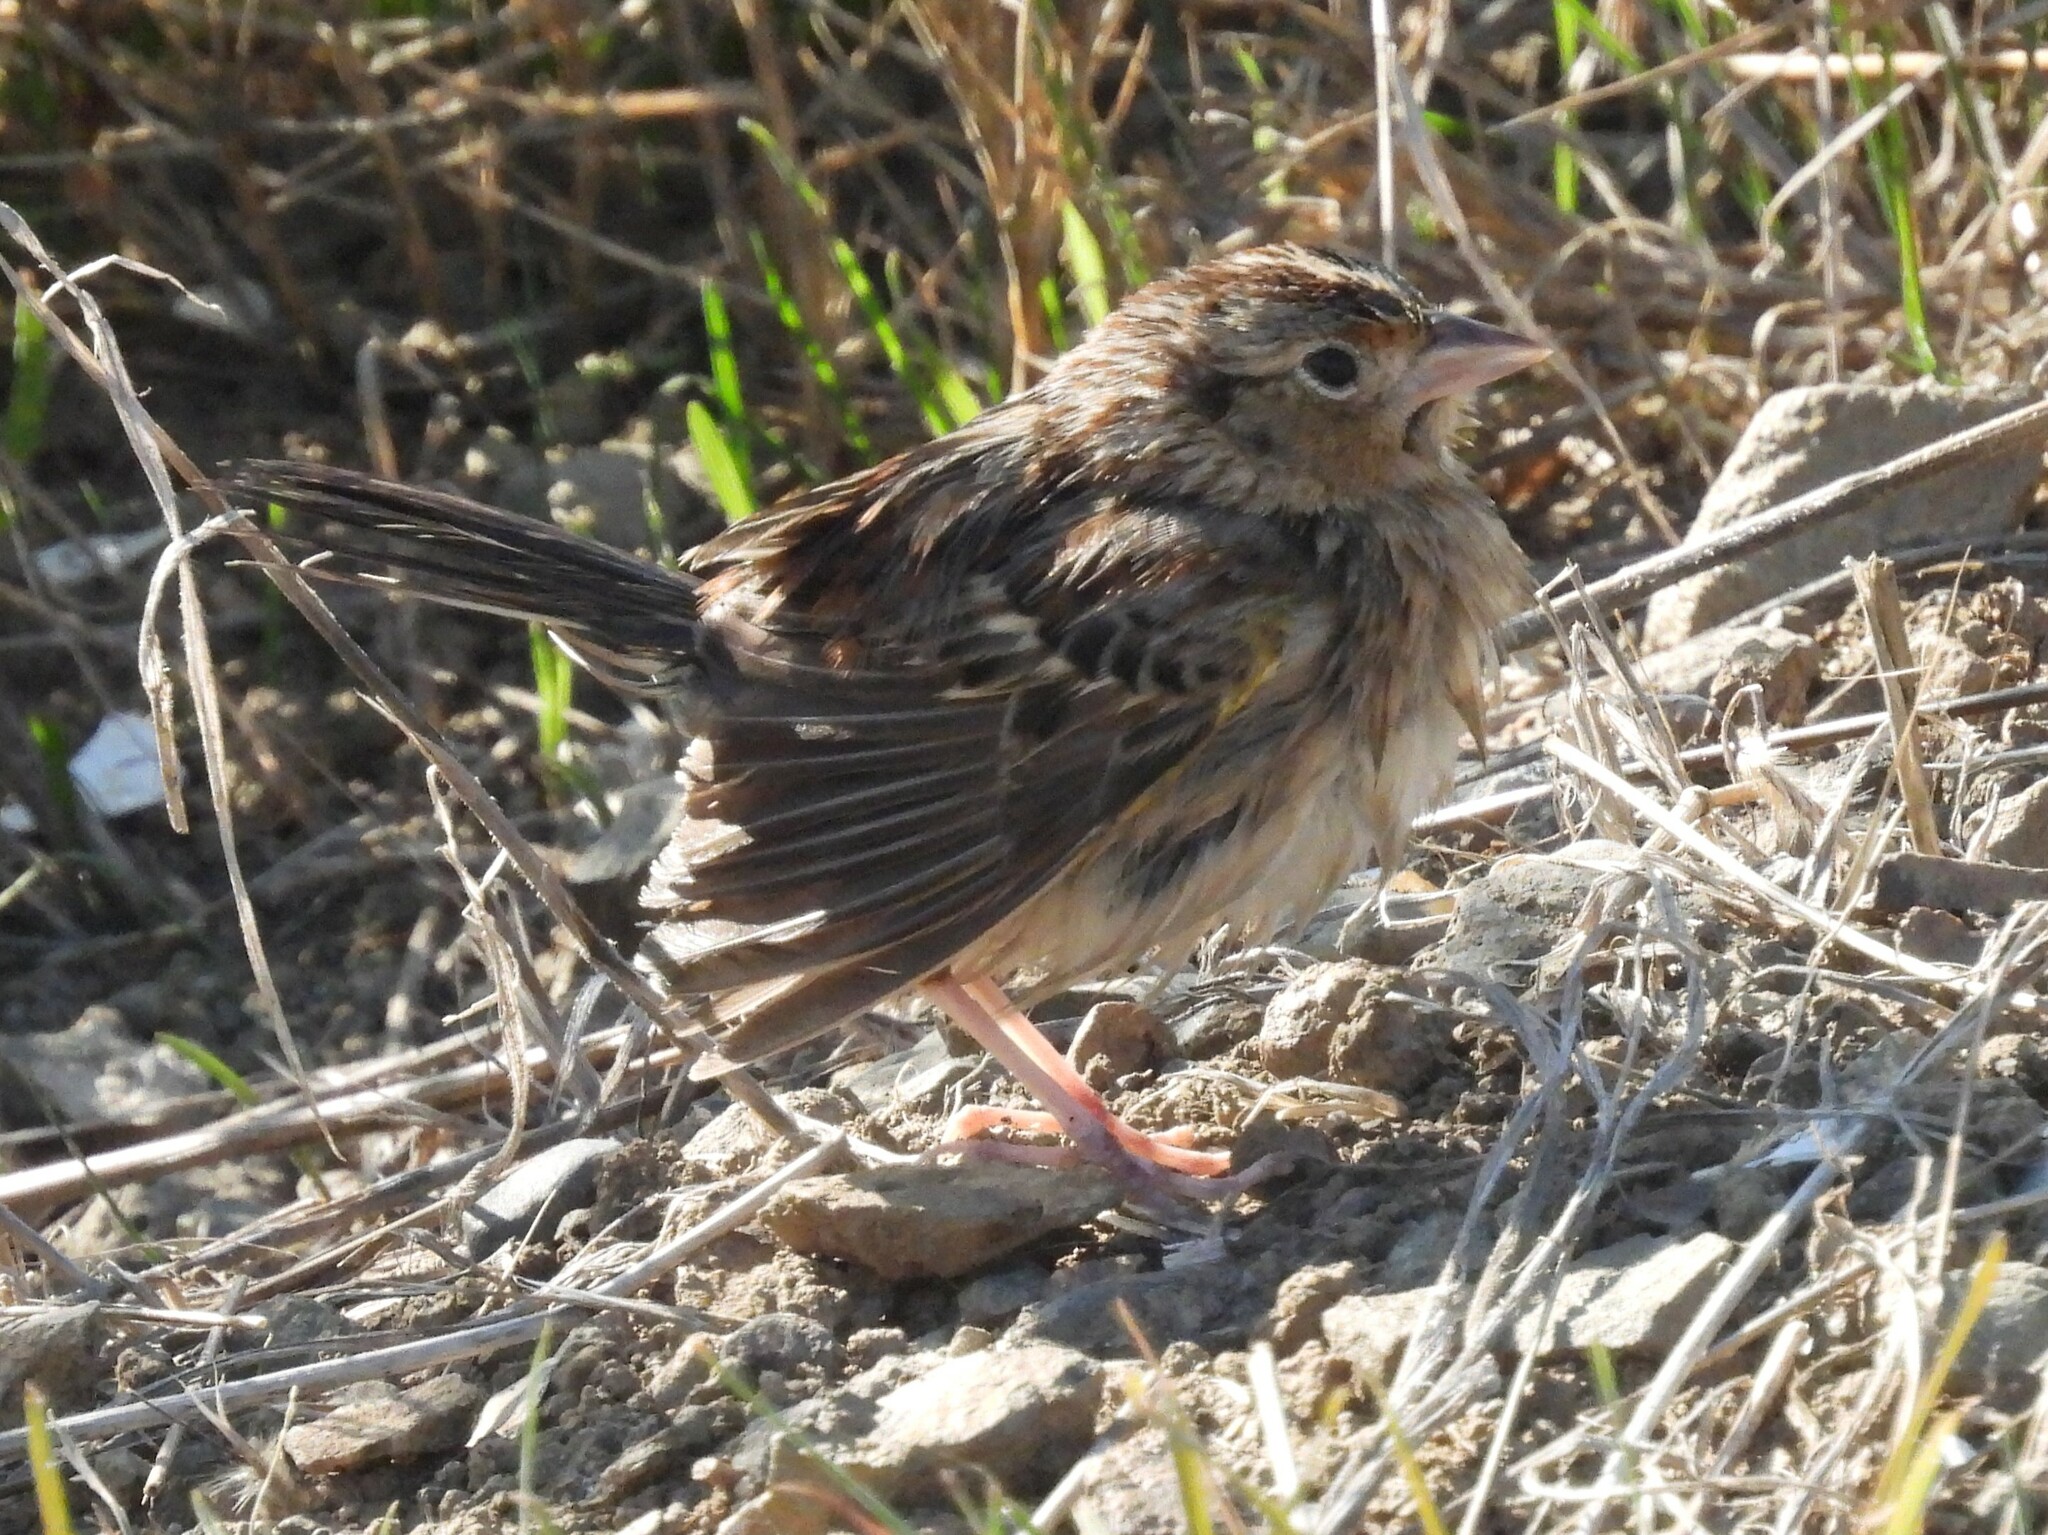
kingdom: Animalia
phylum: Chordata
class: Aves
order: Passeriformes
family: Passerellidae
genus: Ammodramus
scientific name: Ammodramus savannarum
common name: Grasshopper sparrow
